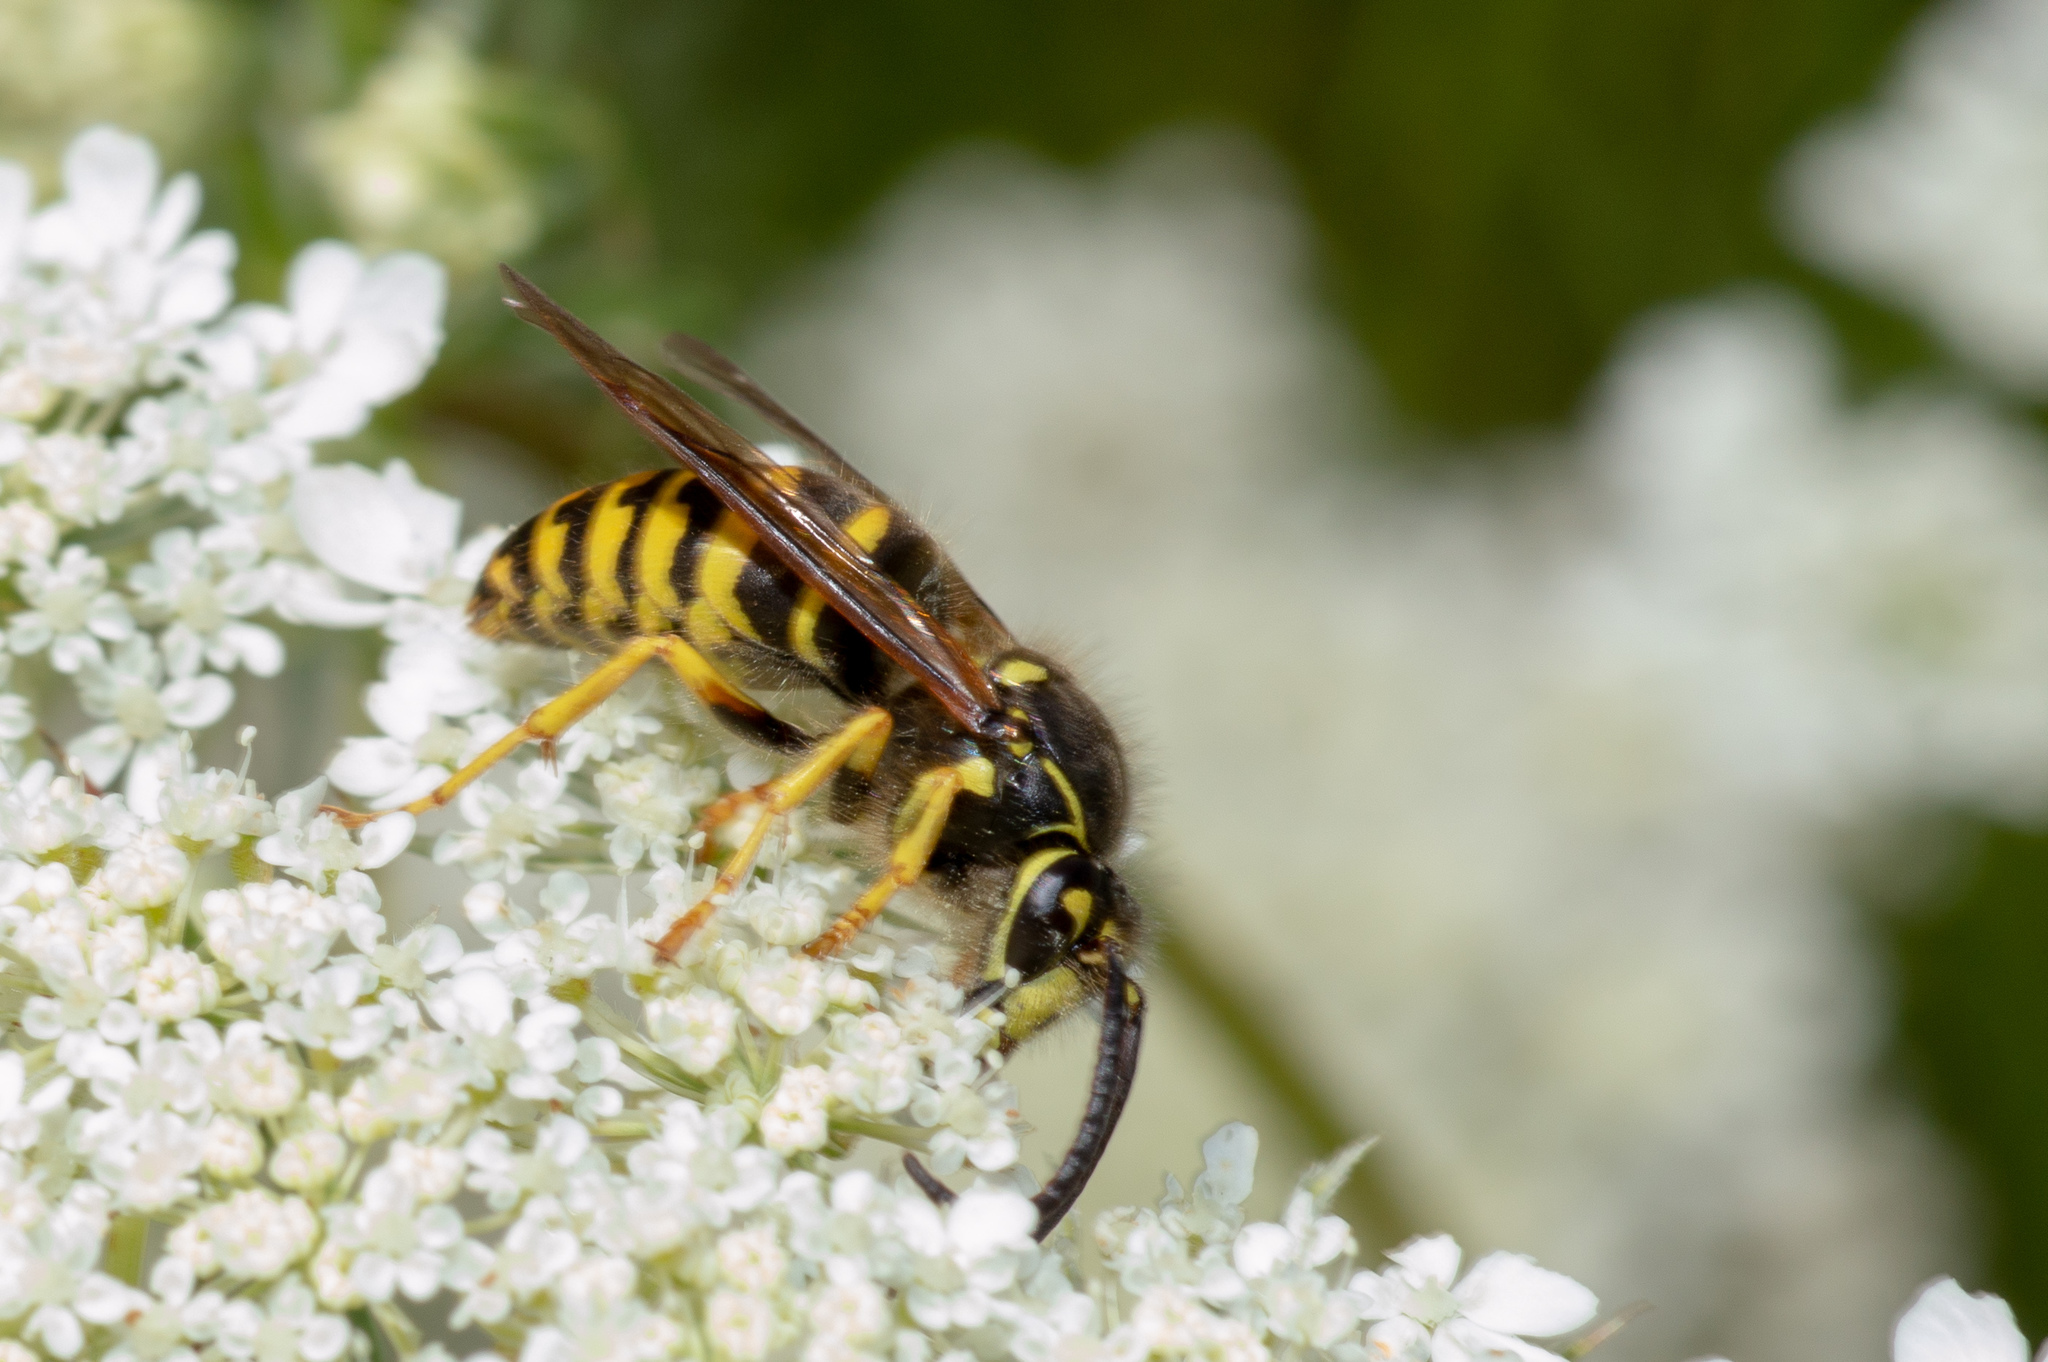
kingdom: Animalia
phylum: Arthropoda
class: Insecta
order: Hymenoptera
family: Vespidae
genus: Dolichovespula
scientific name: Dolichovespula arenaria
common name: Aerial yellowjacket
